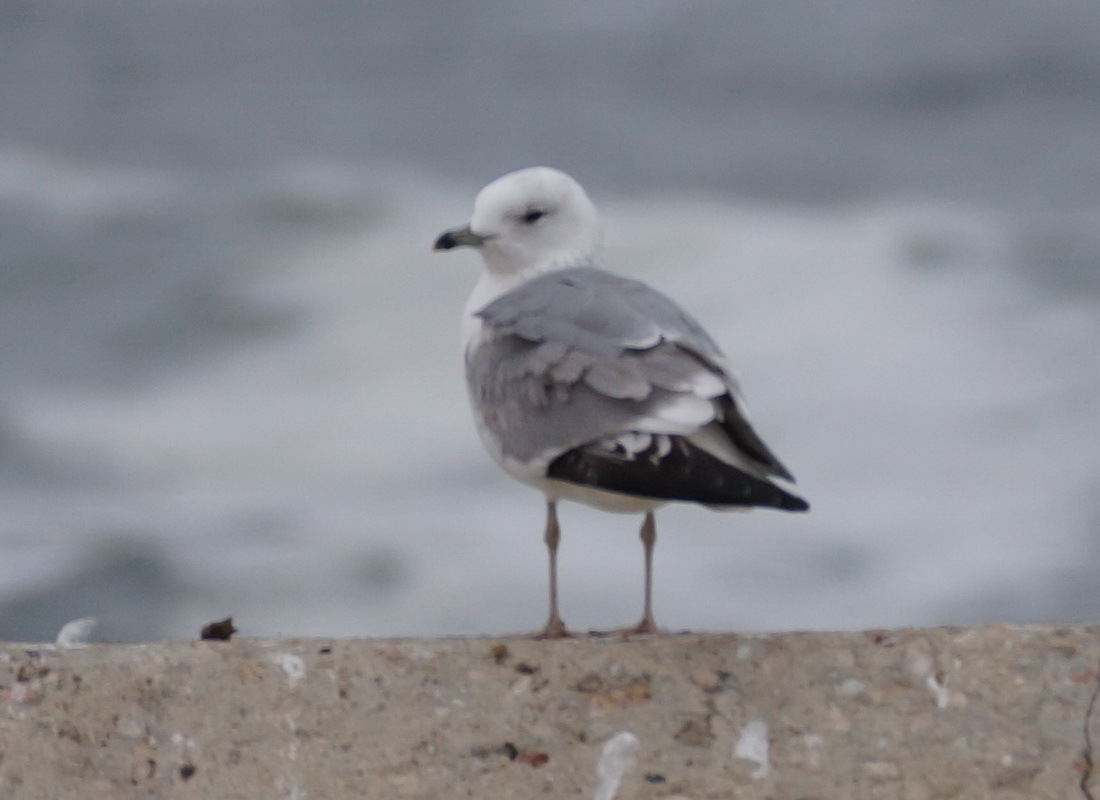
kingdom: Animalia
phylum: Chordata
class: Aves
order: Charadriiformes
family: Laridae
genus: Larus
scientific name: Larus canus
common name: Mew gull
